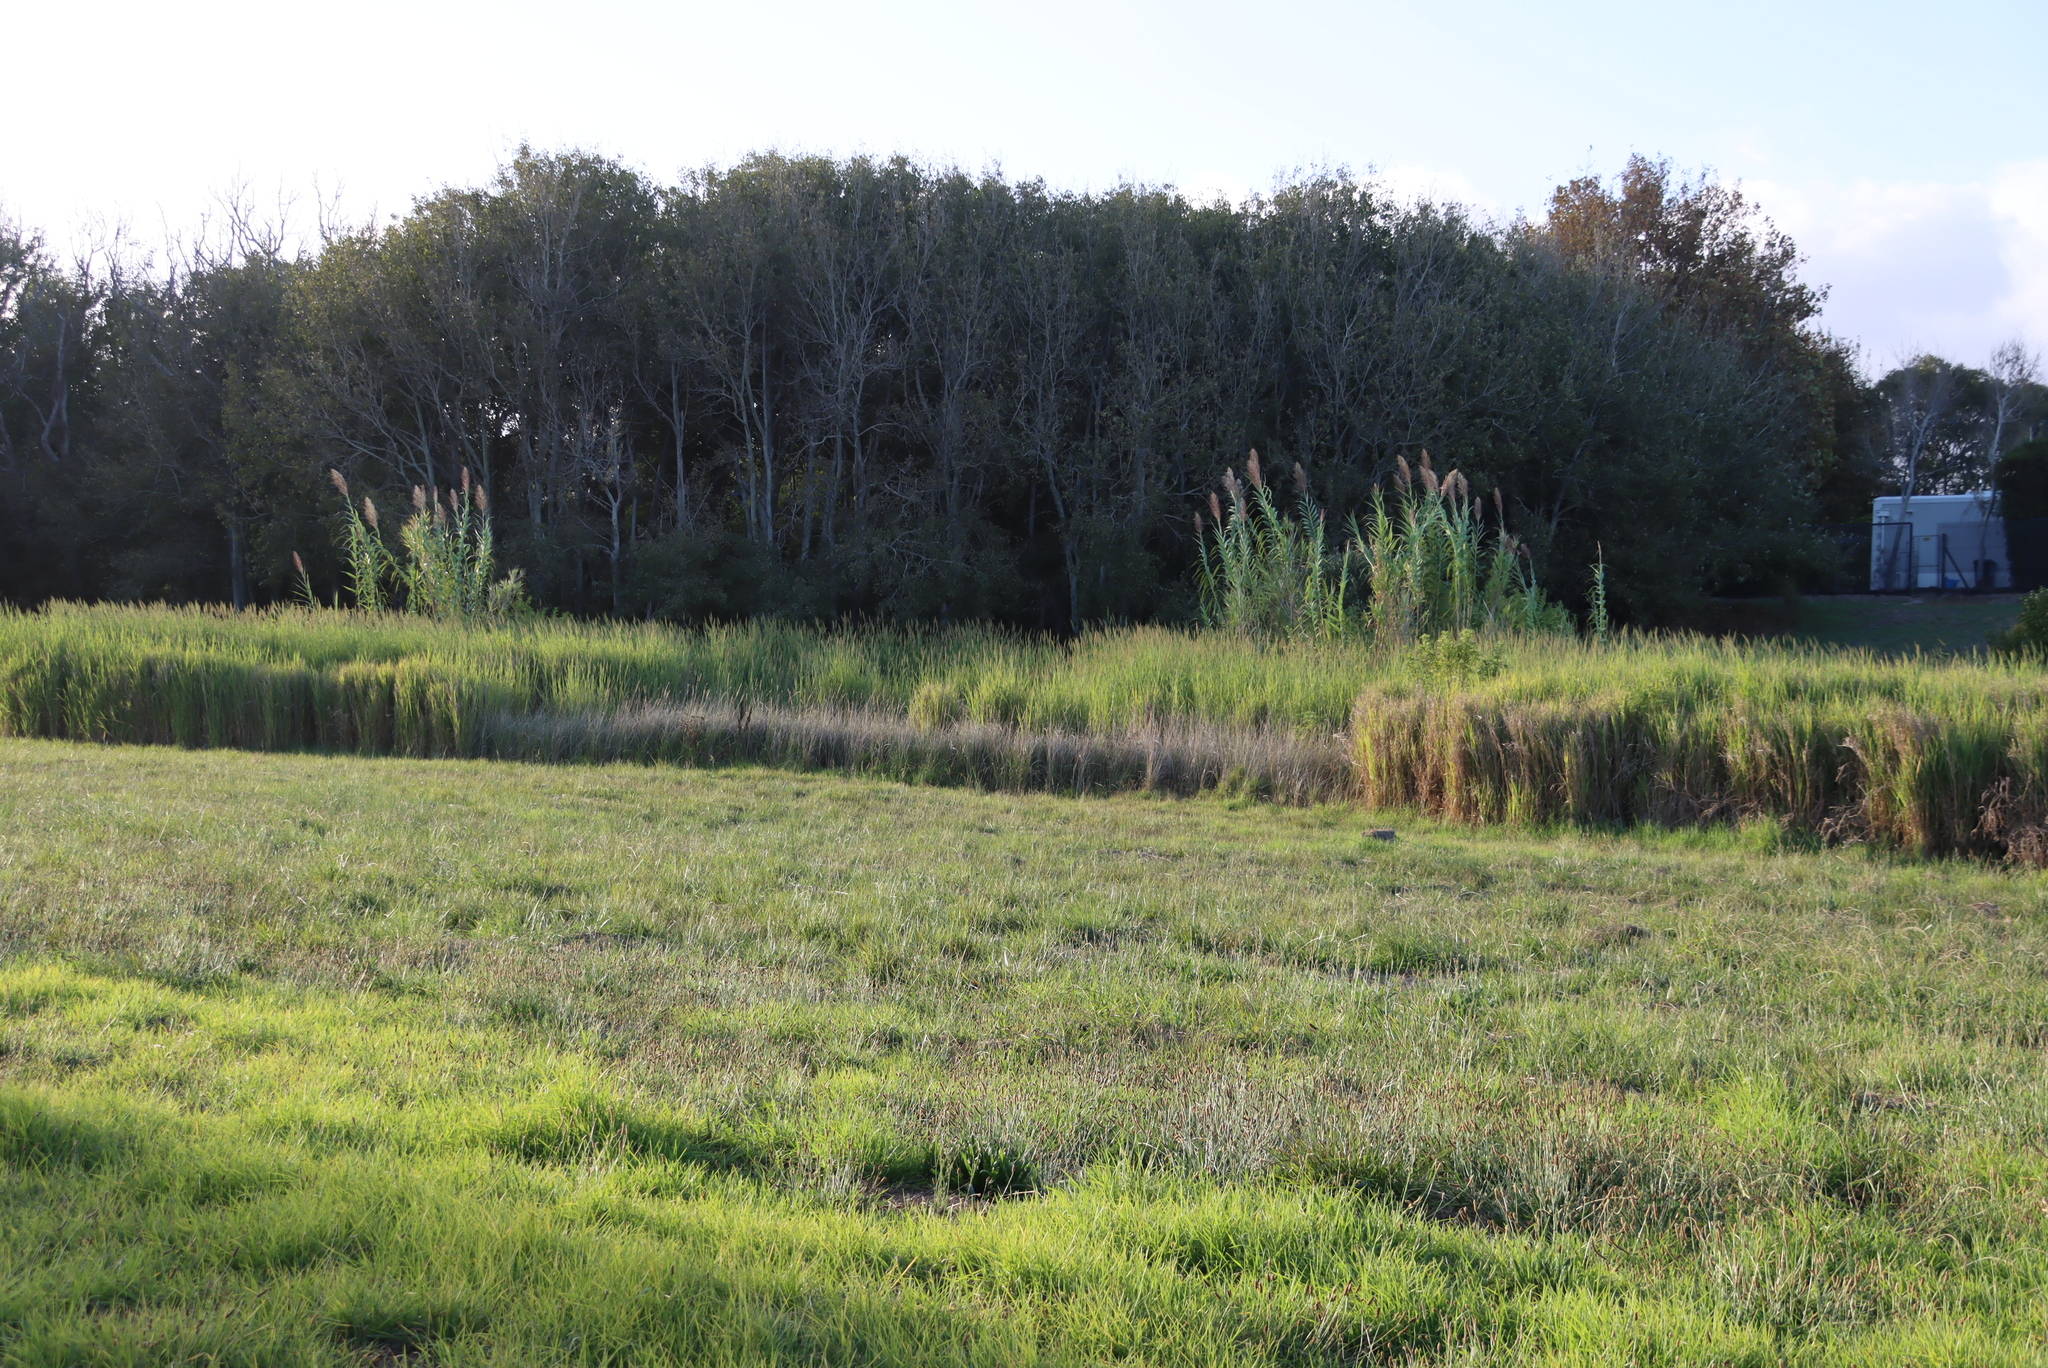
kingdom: Plantae
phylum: Tracheophyta
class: Liliopsida
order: Poales
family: Poaceae
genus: Arundo
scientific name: Arundo donax
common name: Giant reed
